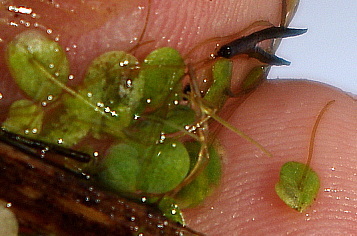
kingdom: Plantae
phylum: Tracheophyta
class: Liliopsida
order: Alismatales
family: Araceae
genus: Lemna
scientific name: Lemna minor
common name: Common duckweed
